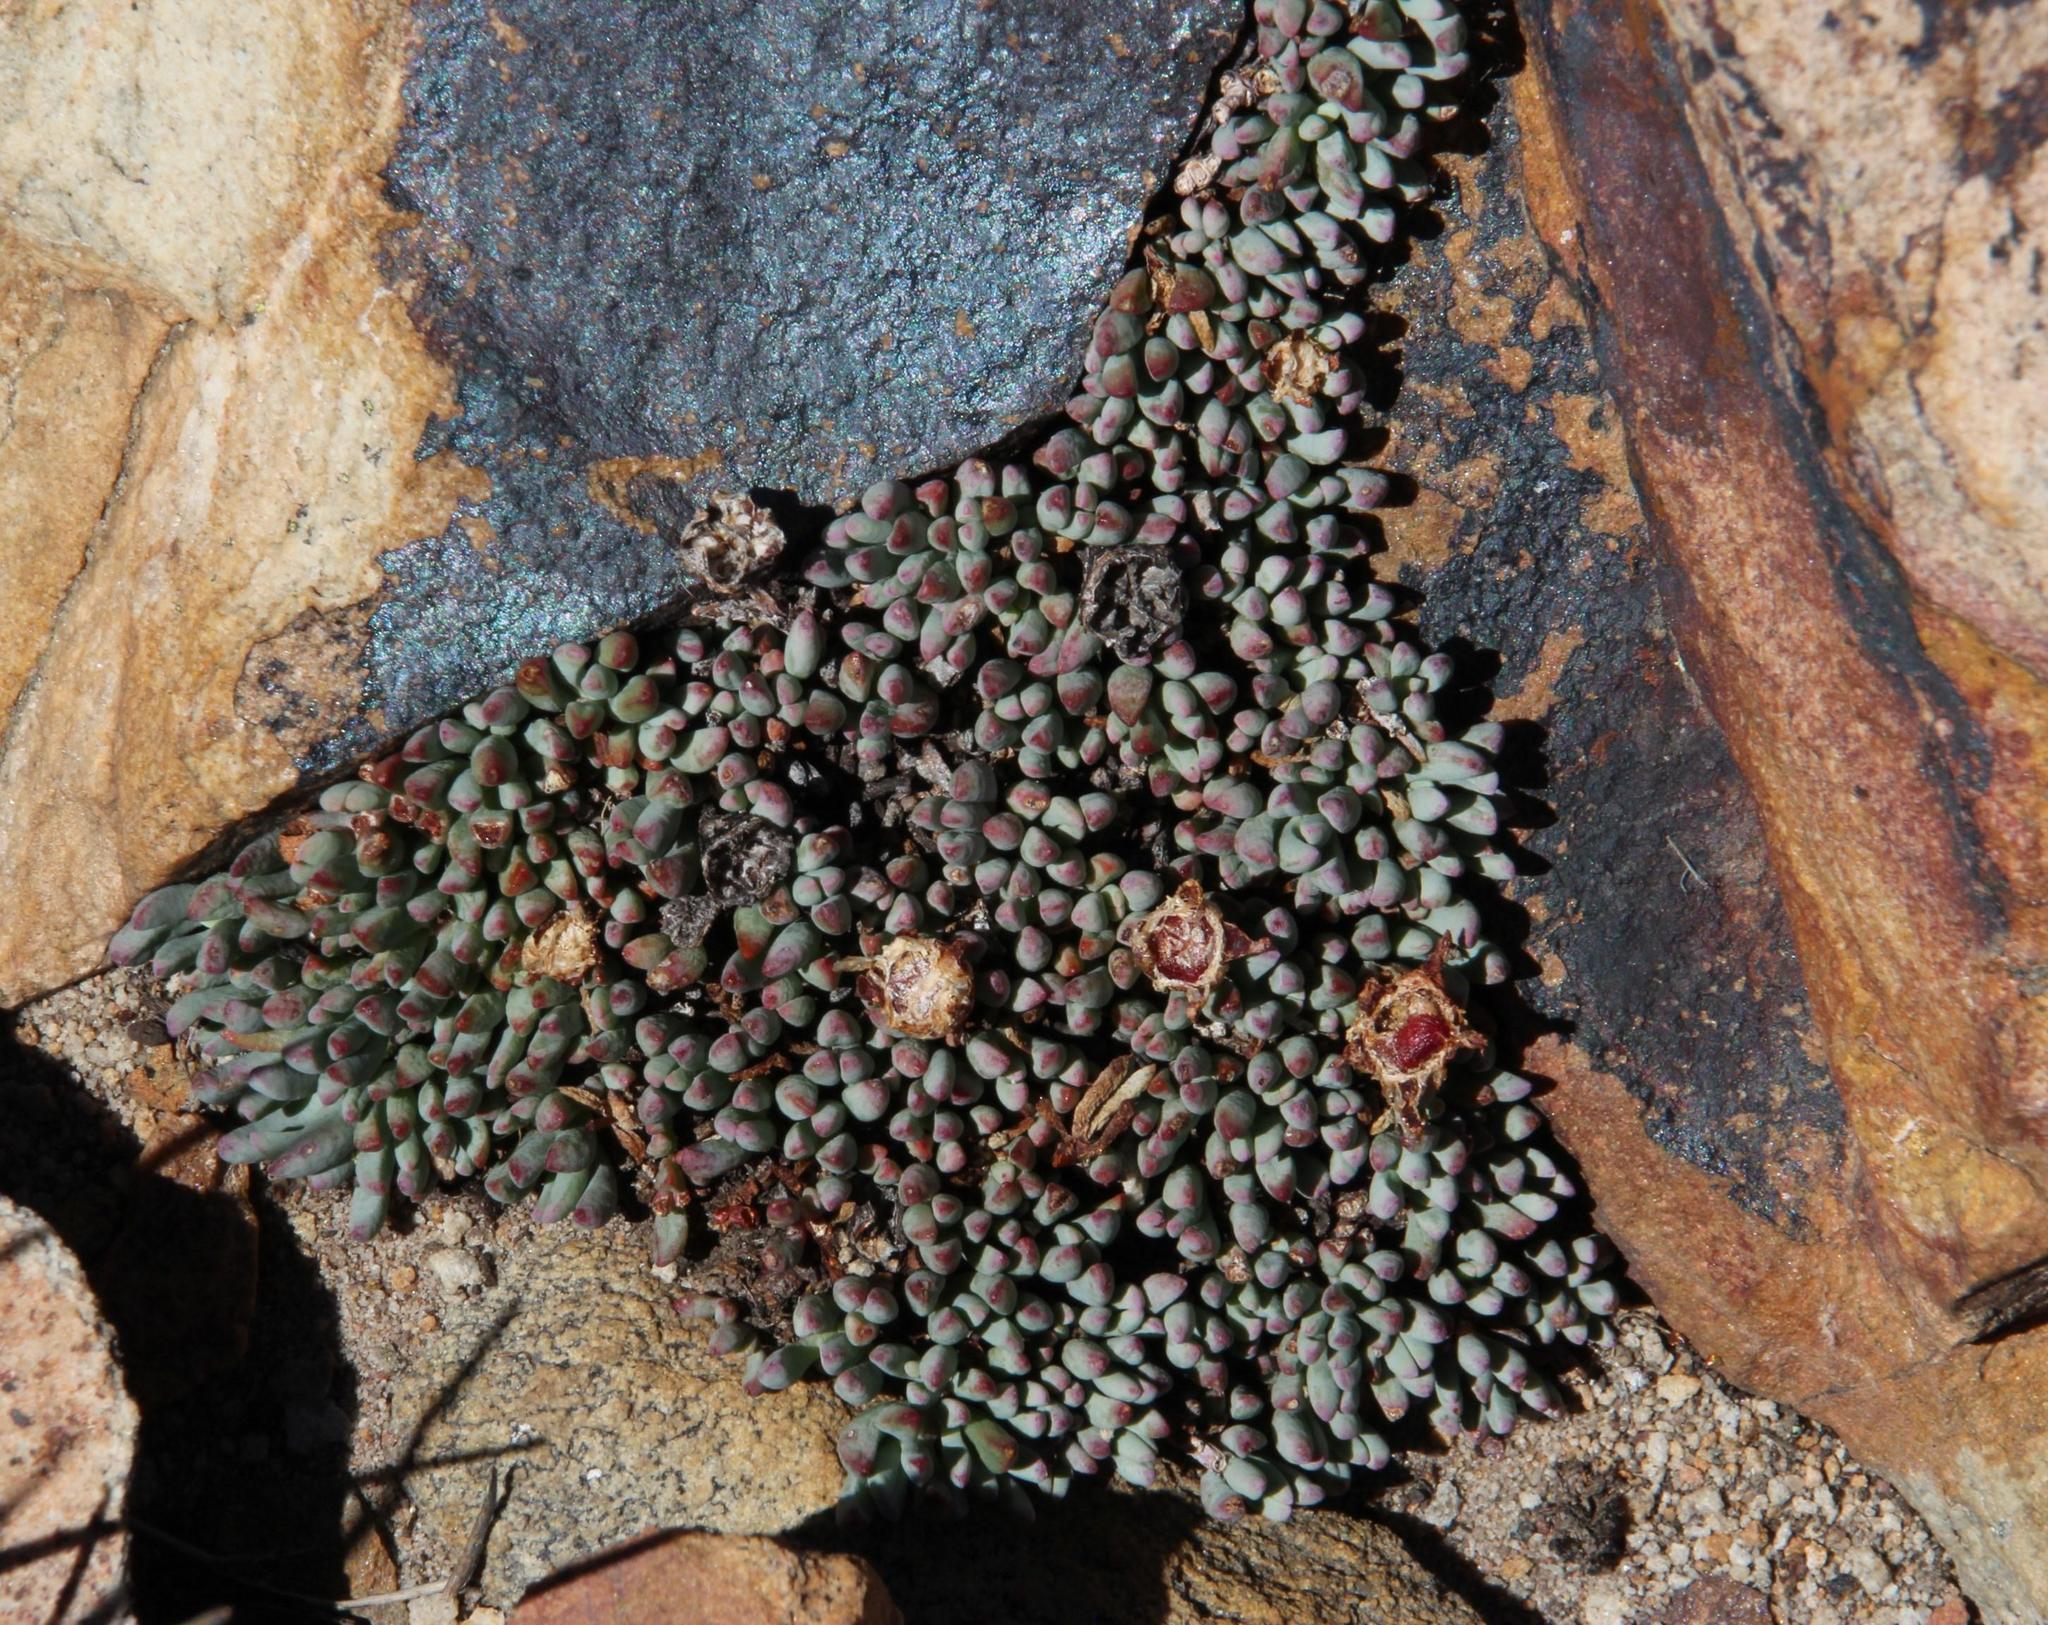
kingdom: Plantae
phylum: Tracheophyta
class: Magnoliopsida
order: Caryophyllales
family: Aizoaceae
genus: Esterhuysenia
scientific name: Esterhuysenia alpina
